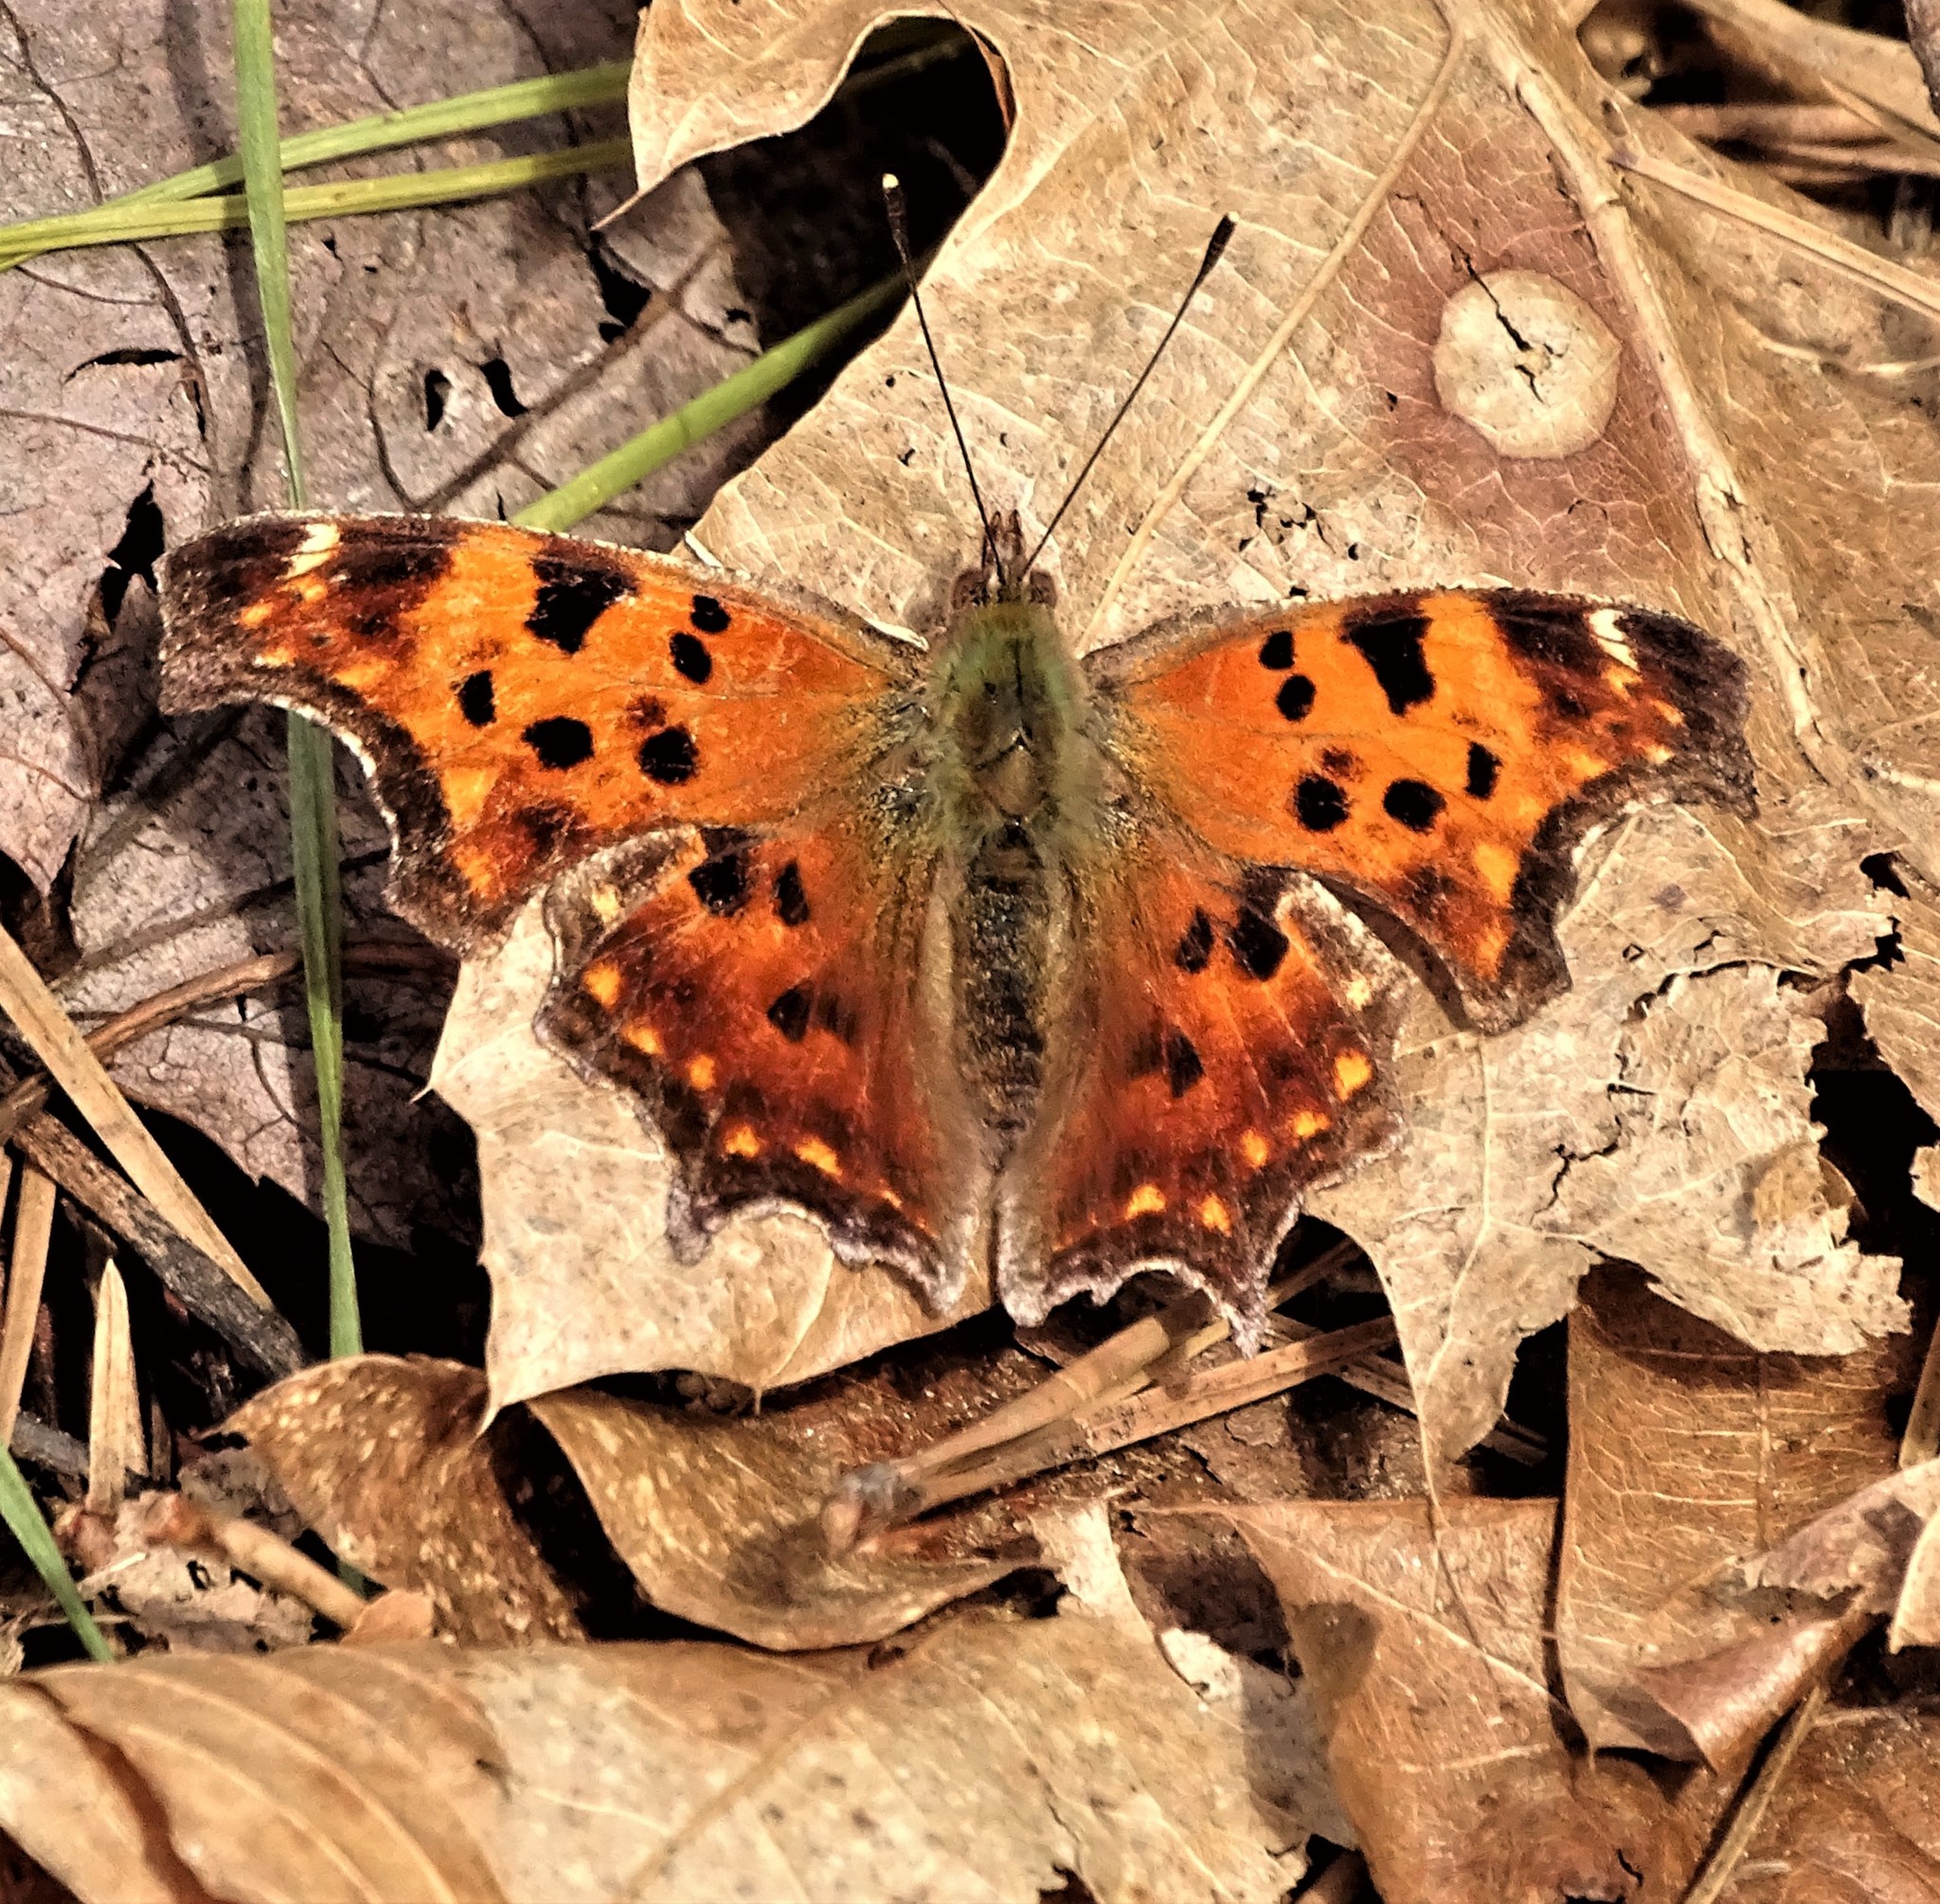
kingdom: Animalia
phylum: Arthropoda
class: Insecta
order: Lepidoptera
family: Nymphalidae
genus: Polygonia
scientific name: Polygonia comma
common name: Eastern comma
